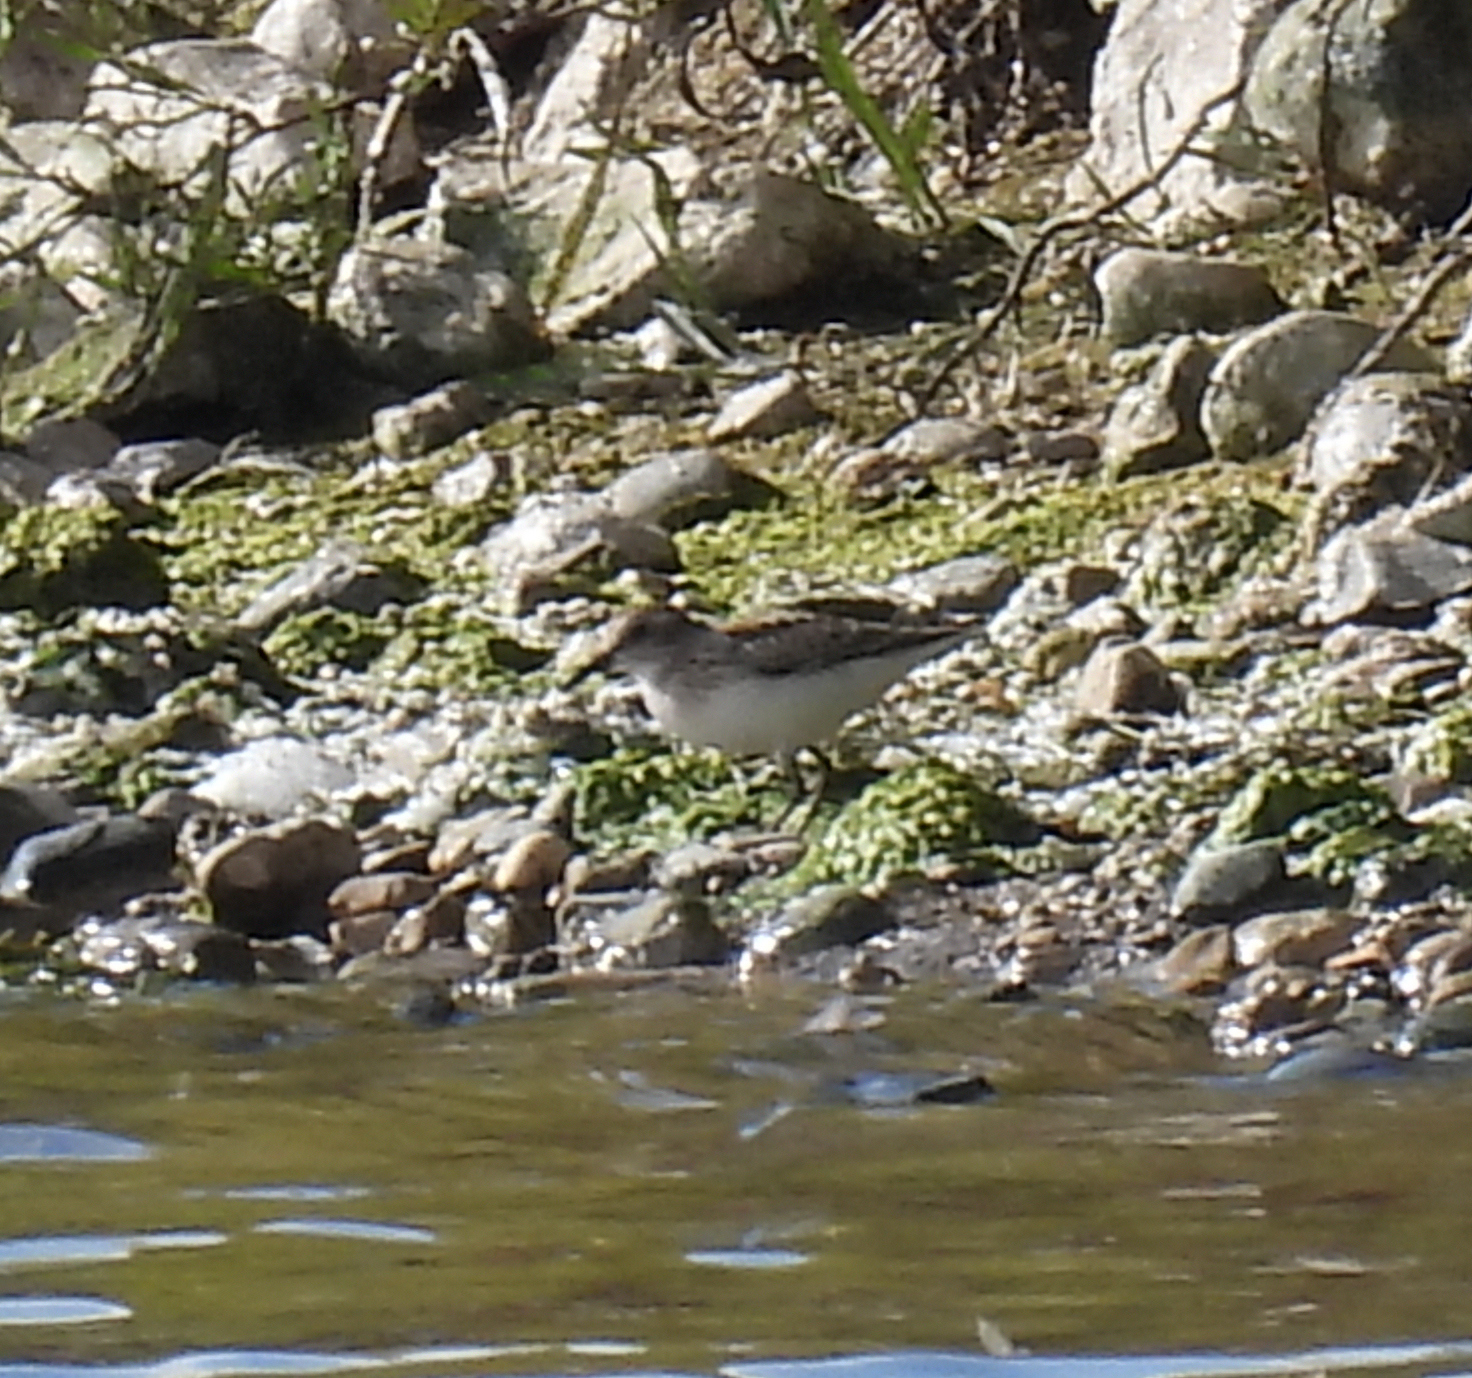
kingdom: Animalia
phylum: Chordata
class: Aves
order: Charadriiformes
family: Scolopacidae
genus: Calidris
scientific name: Calidris minutilla
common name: Least sandpiper
